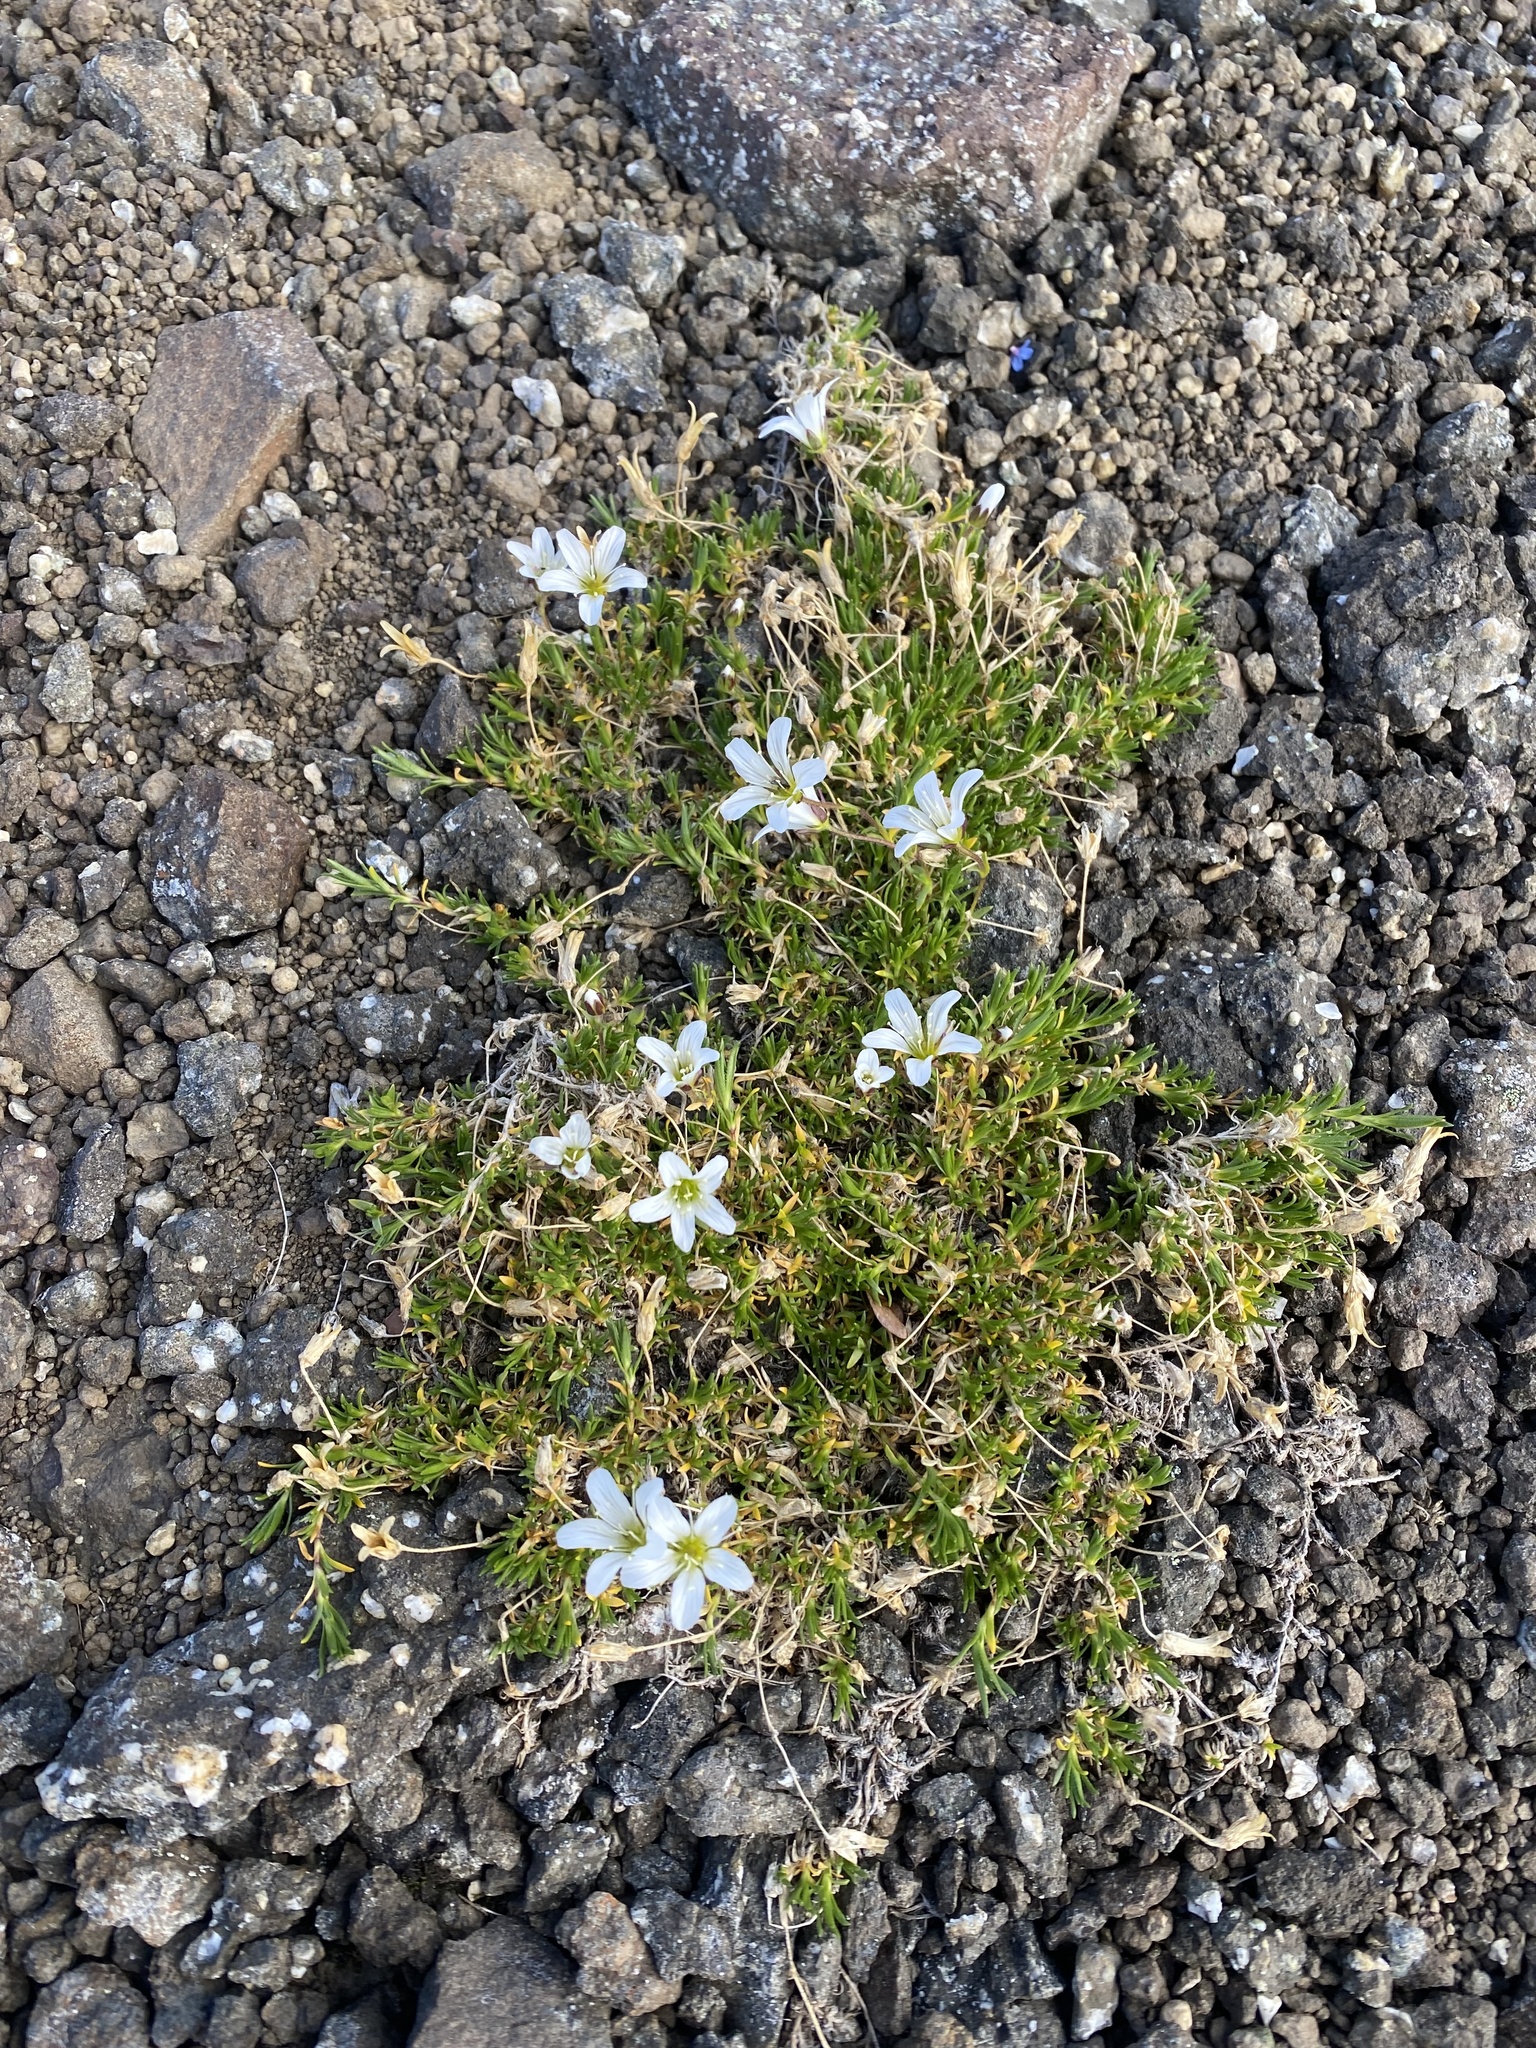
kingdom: Plantae
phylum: Tracheophyta
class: Magnoliopsida
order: Caryophyllales
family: Caryophyllaceae
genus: Cherleria
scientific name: Cherleria arctica
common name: Arctic sandwort
